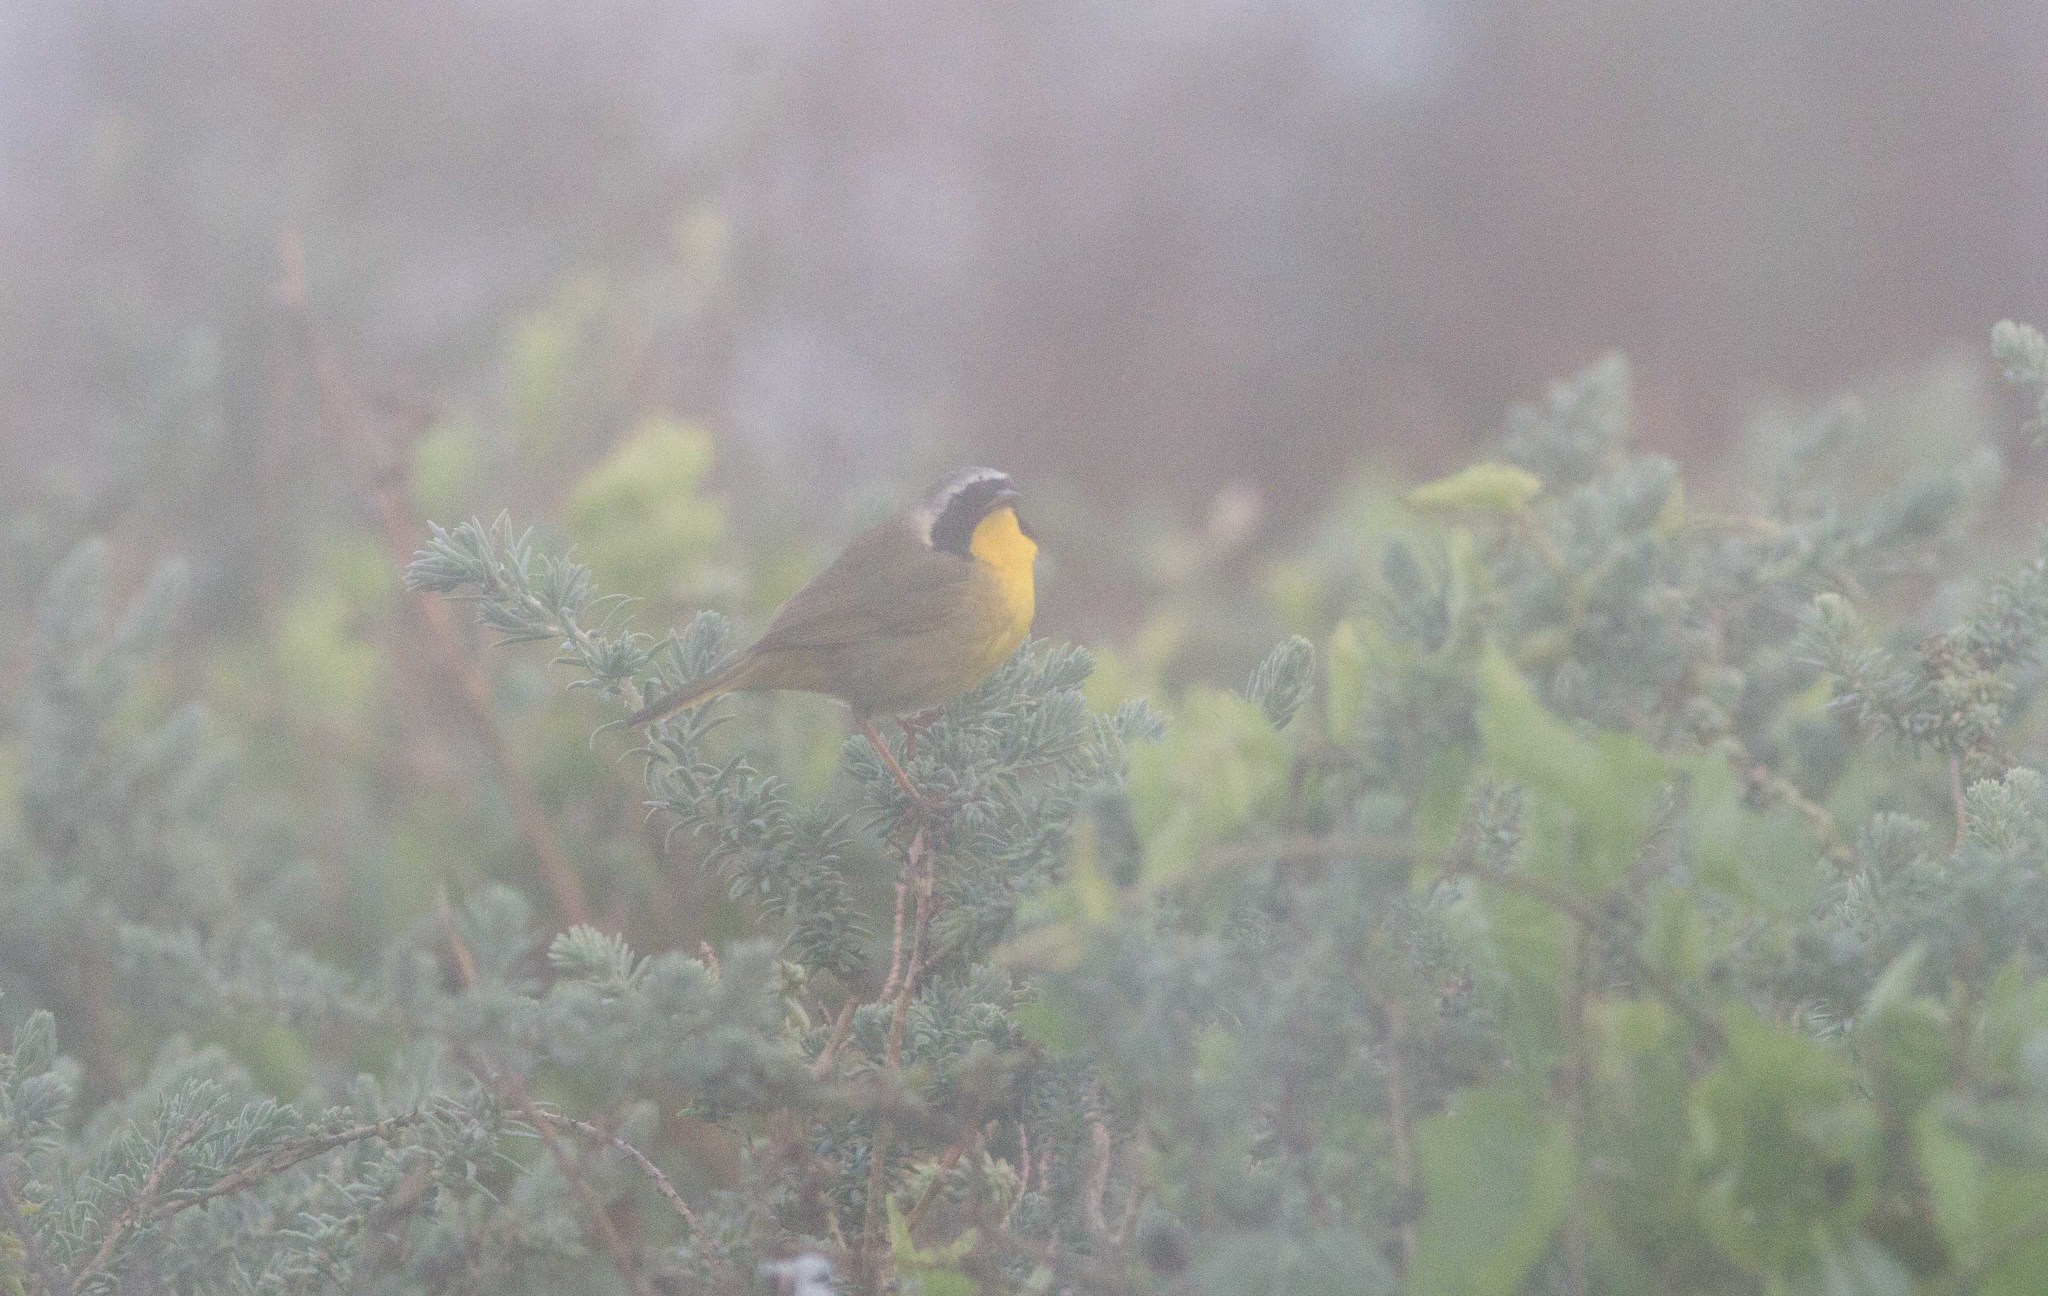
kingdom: Animalia
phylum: Chordata
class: Aves
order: Passeriformes
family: Parulidae
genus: Geothlypis
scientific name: Geothlypis trichas
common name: Common yellowthroat
